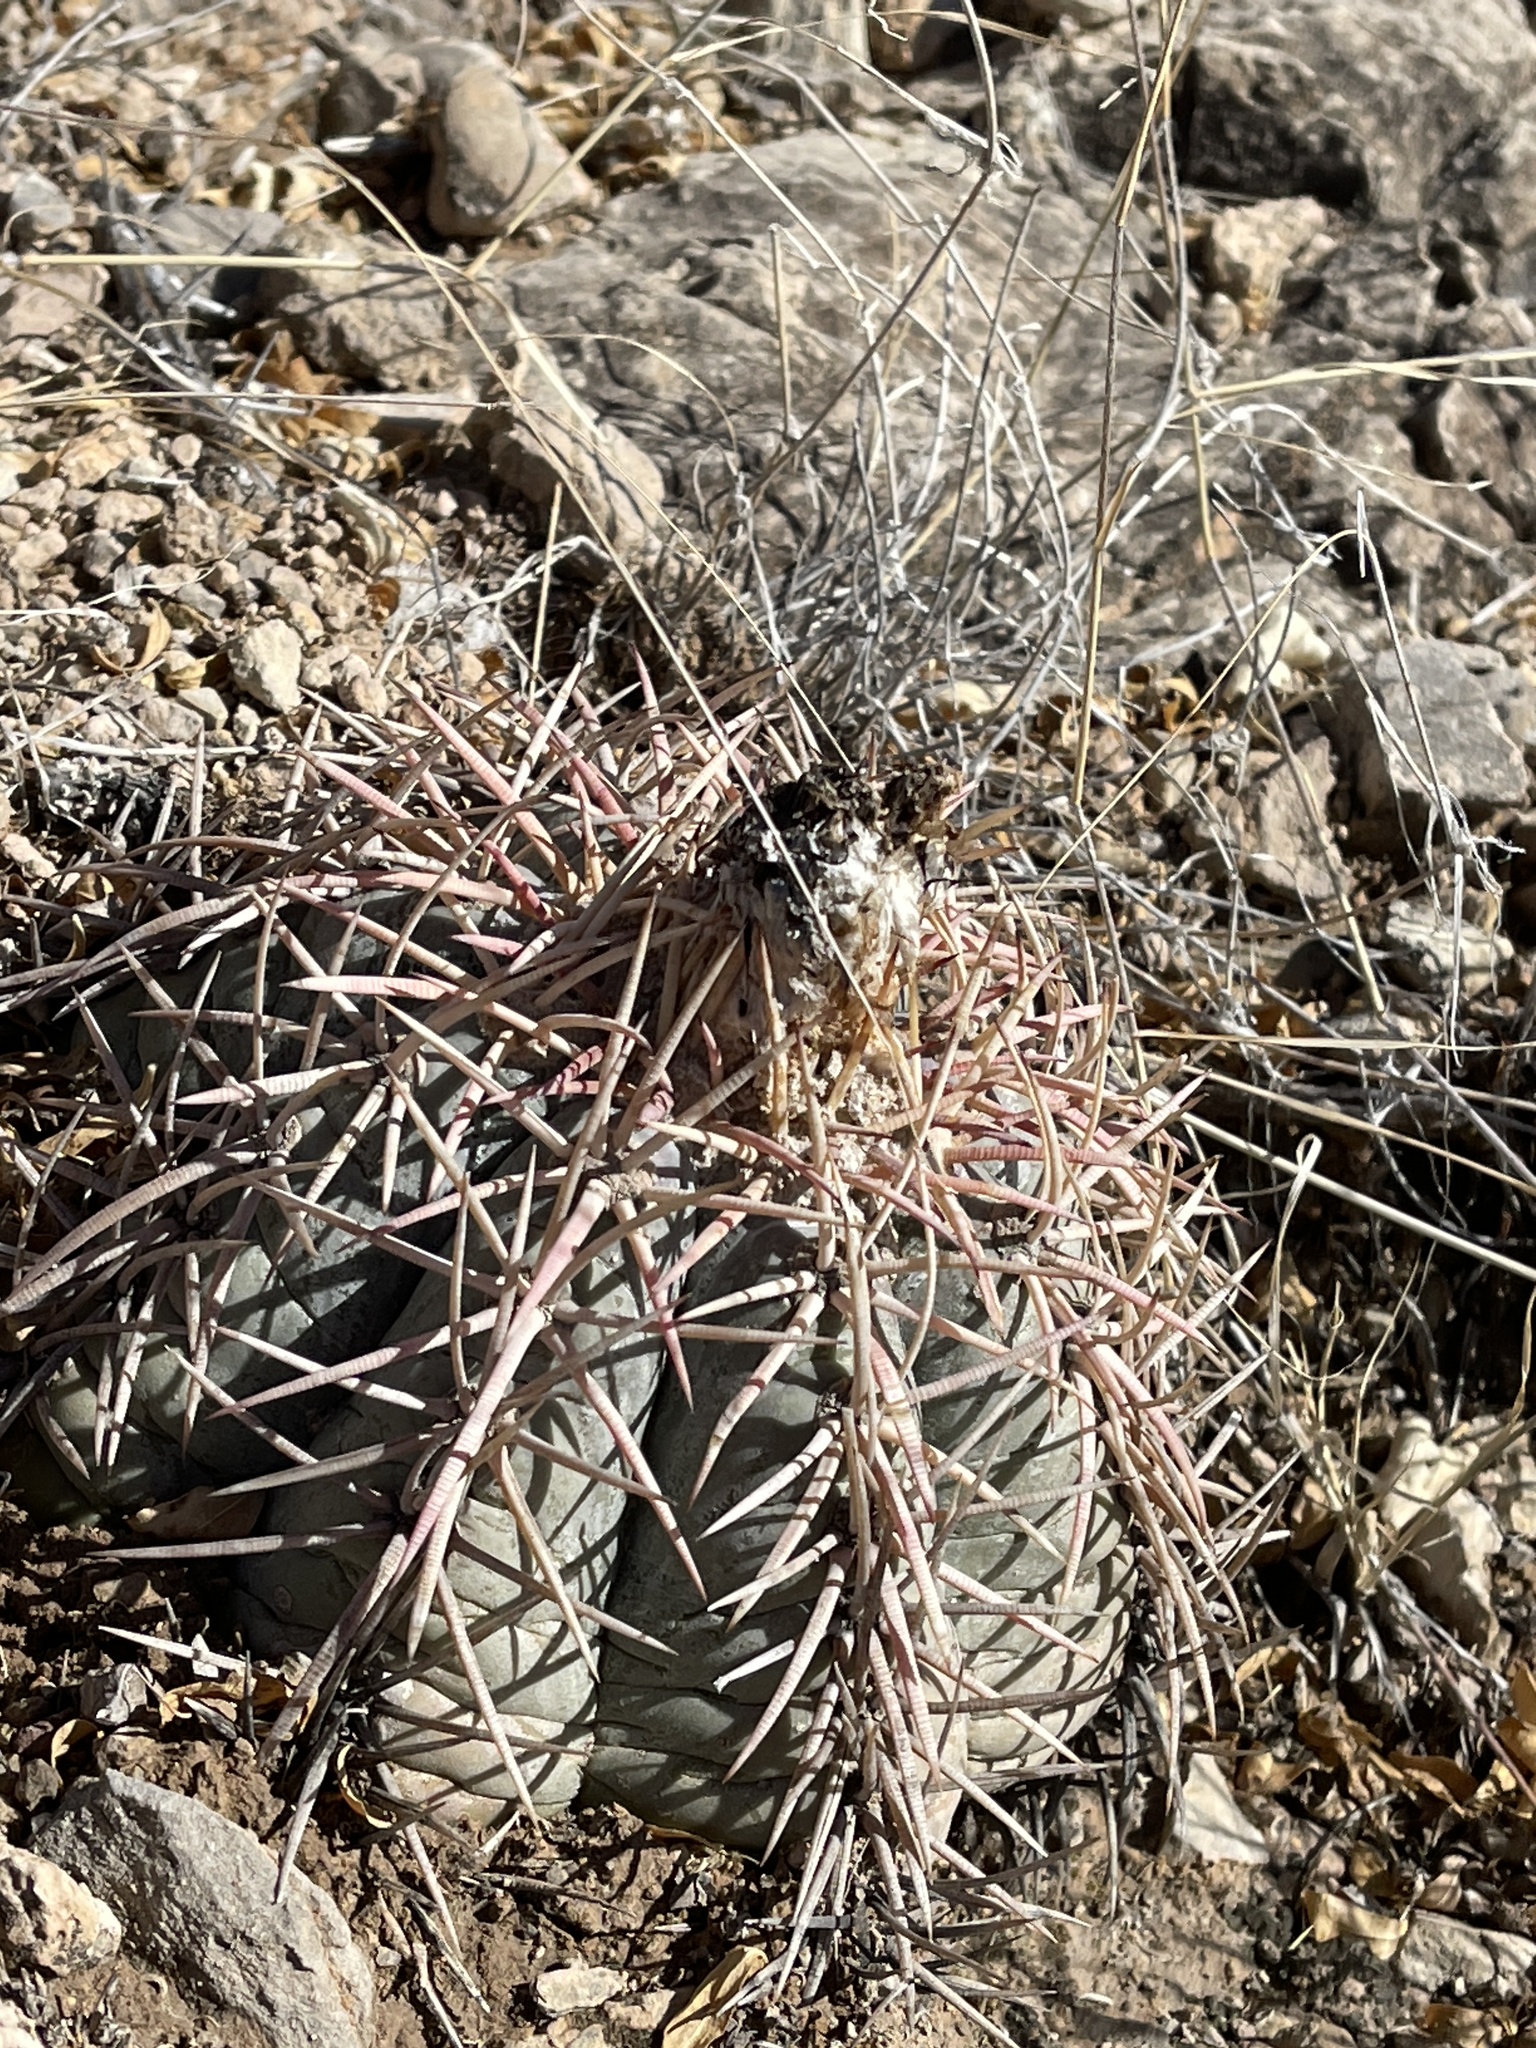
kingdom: Plantae
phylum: Tracheophyta
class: Magnoliopsida
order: Caryophyllales
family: Cactaceae
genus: Echinocactus
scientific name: Echinocactus horizonthalonius
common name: Devilshead
